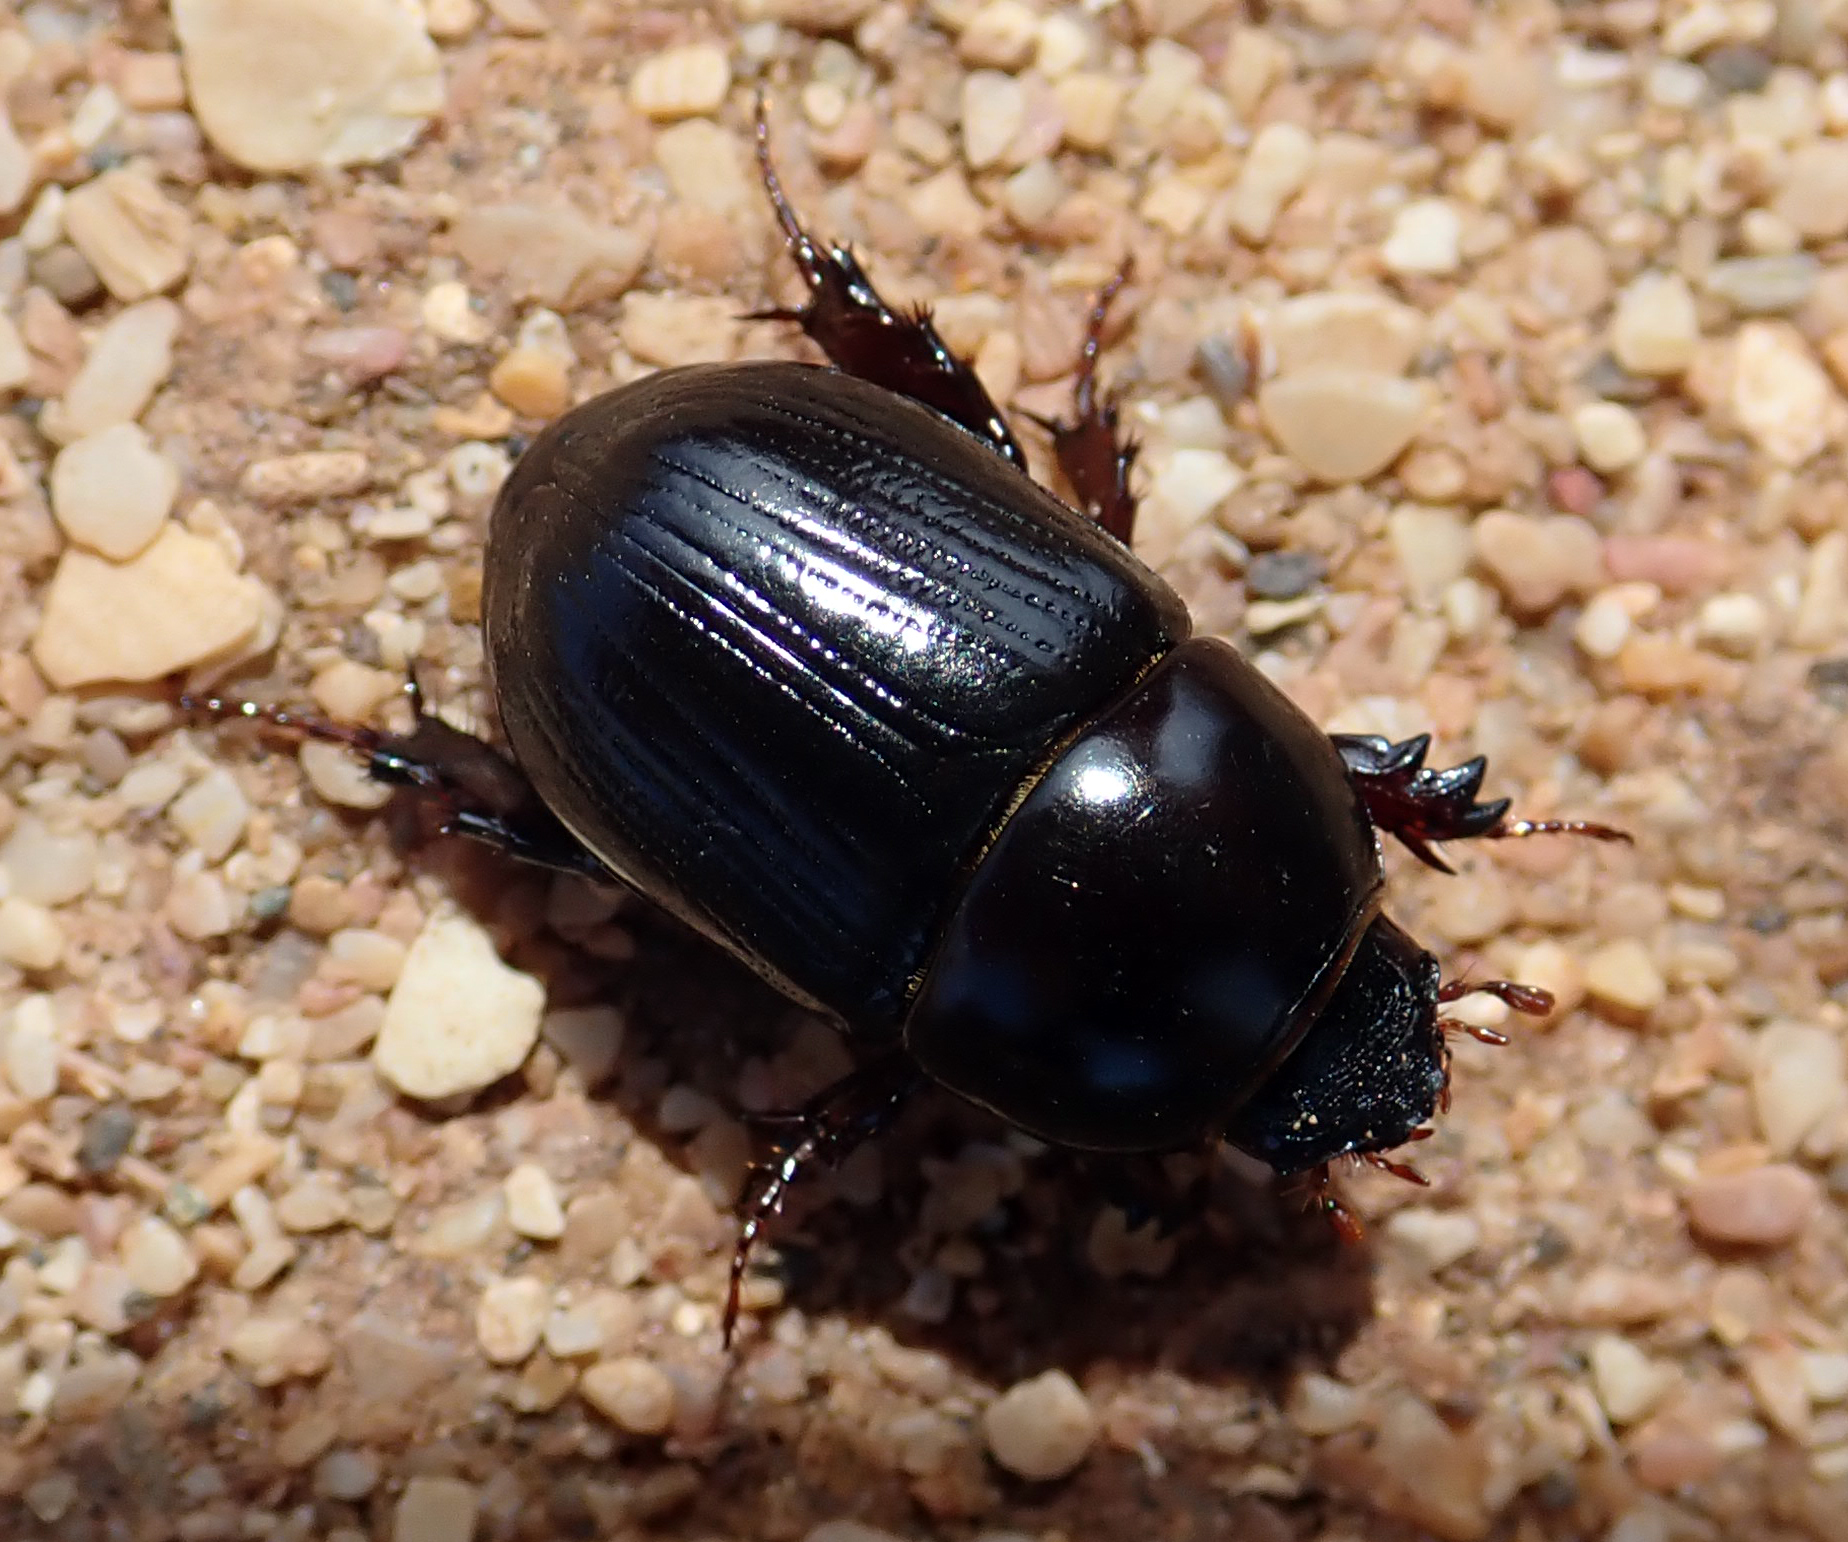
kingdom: Animalia
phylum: Arthropoda
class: Insecta
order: Coleoptera
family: Scarabaeidae
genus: Heteronychus
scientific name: Heteronychus arator
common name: African black beetle
